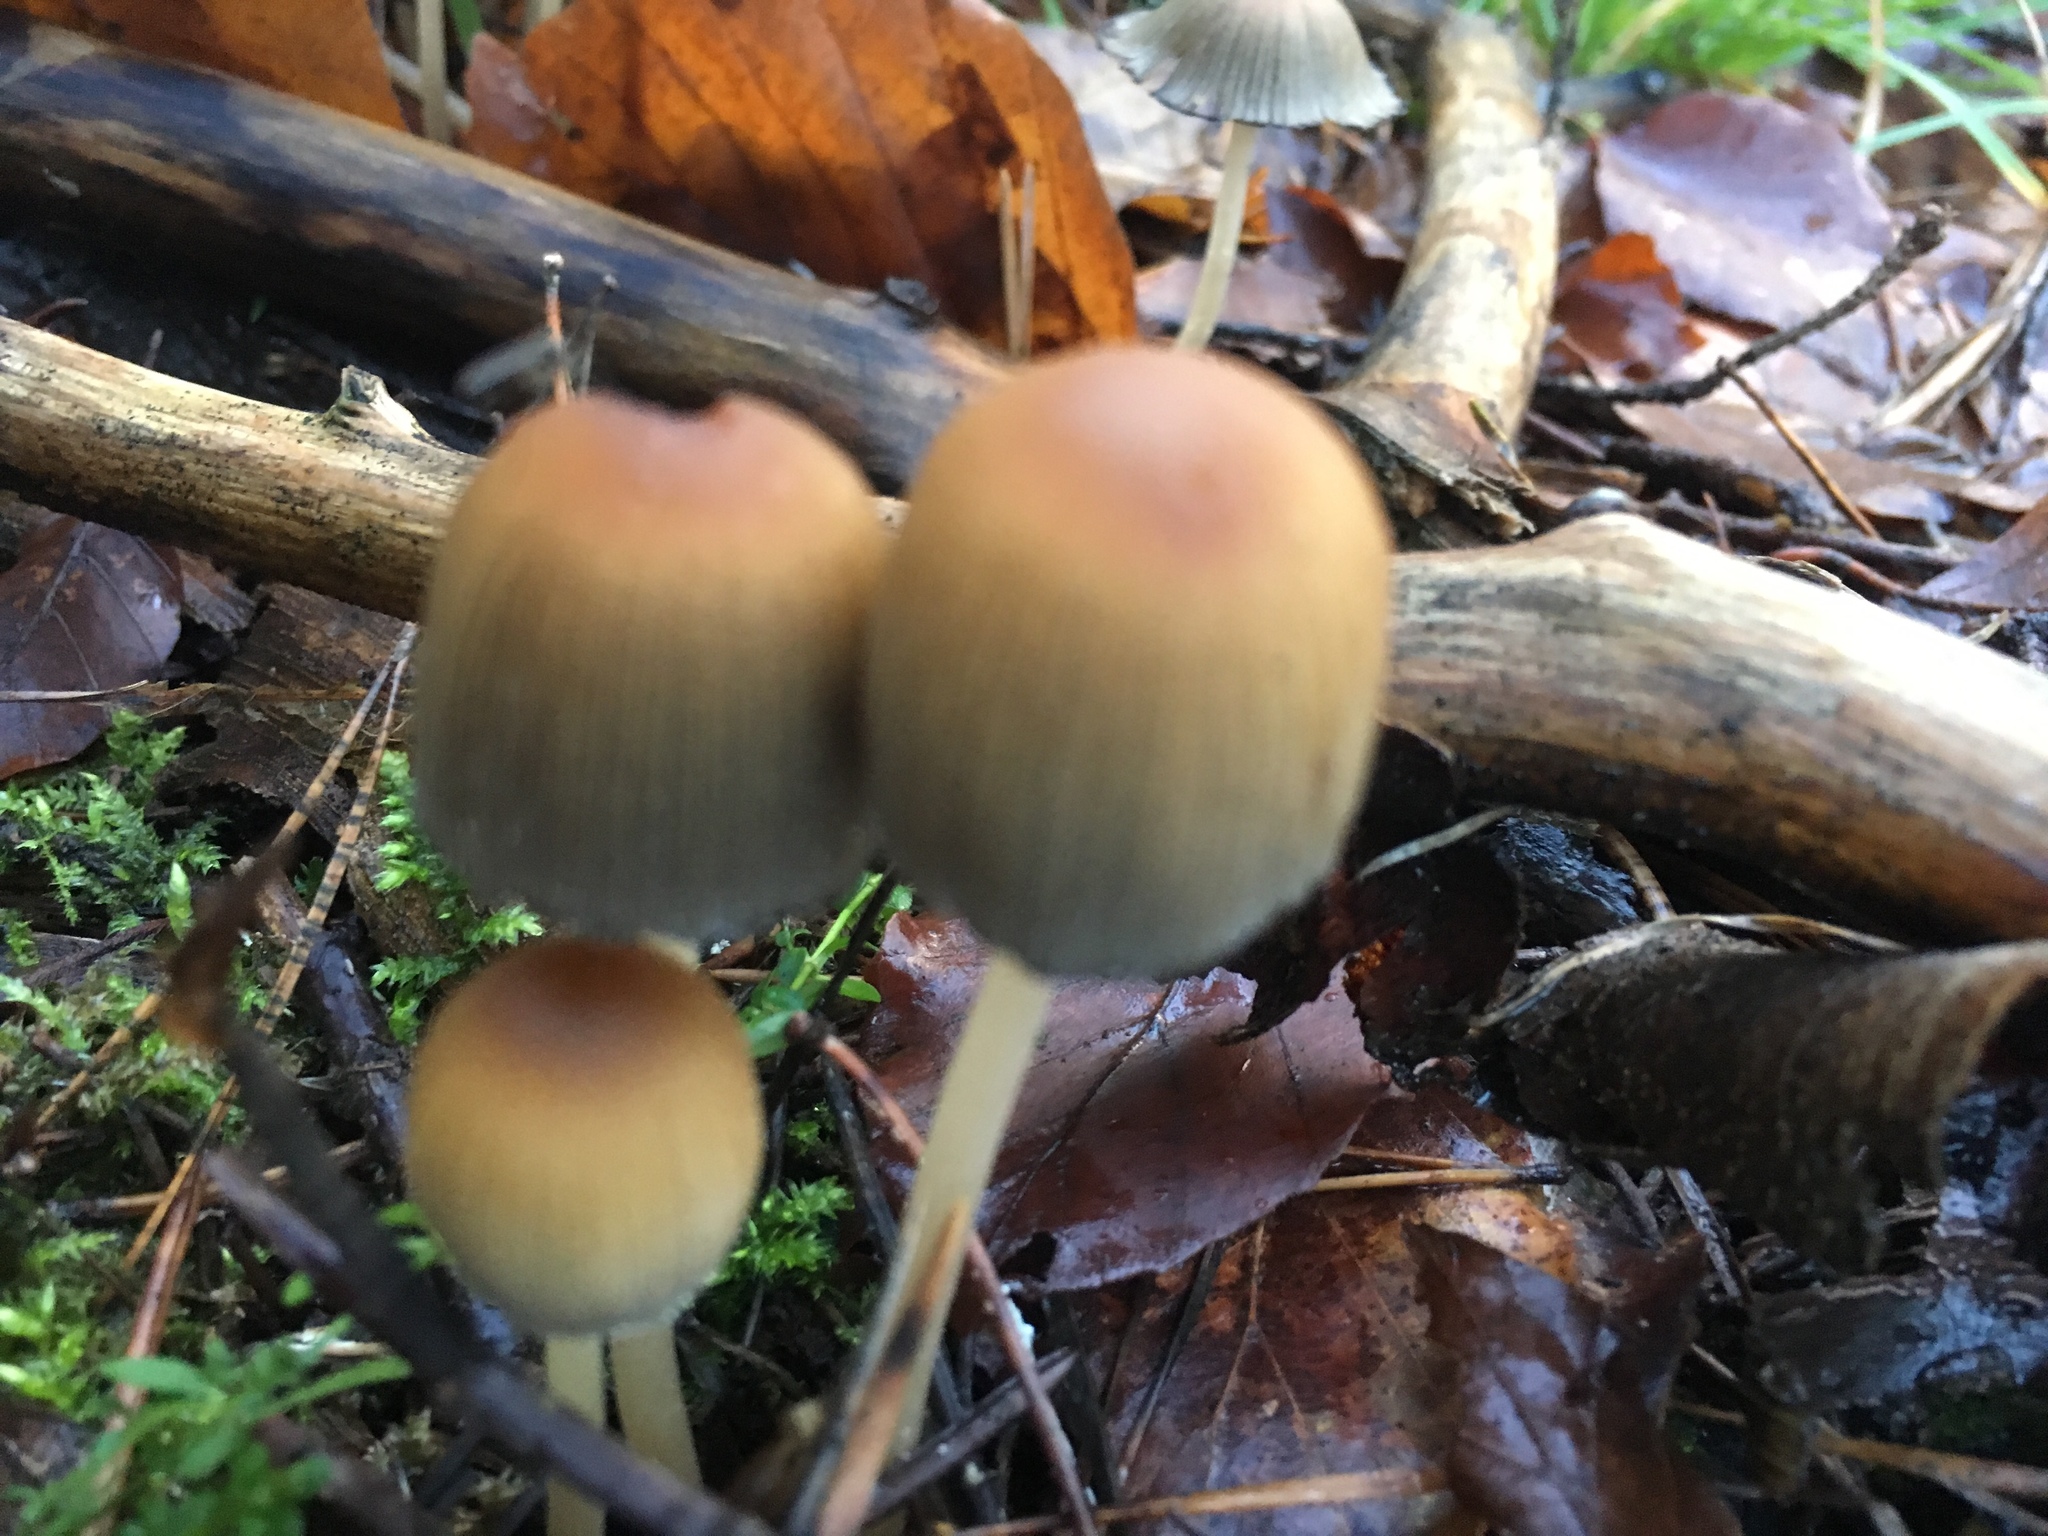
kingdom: Fungi
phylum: Basidiomycota
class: Agaricomycetes
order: Agaricales
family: Psathyrellaceae
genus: Coprinellus
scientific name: Coprinellus micaceus
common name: Glistening ink-cap
